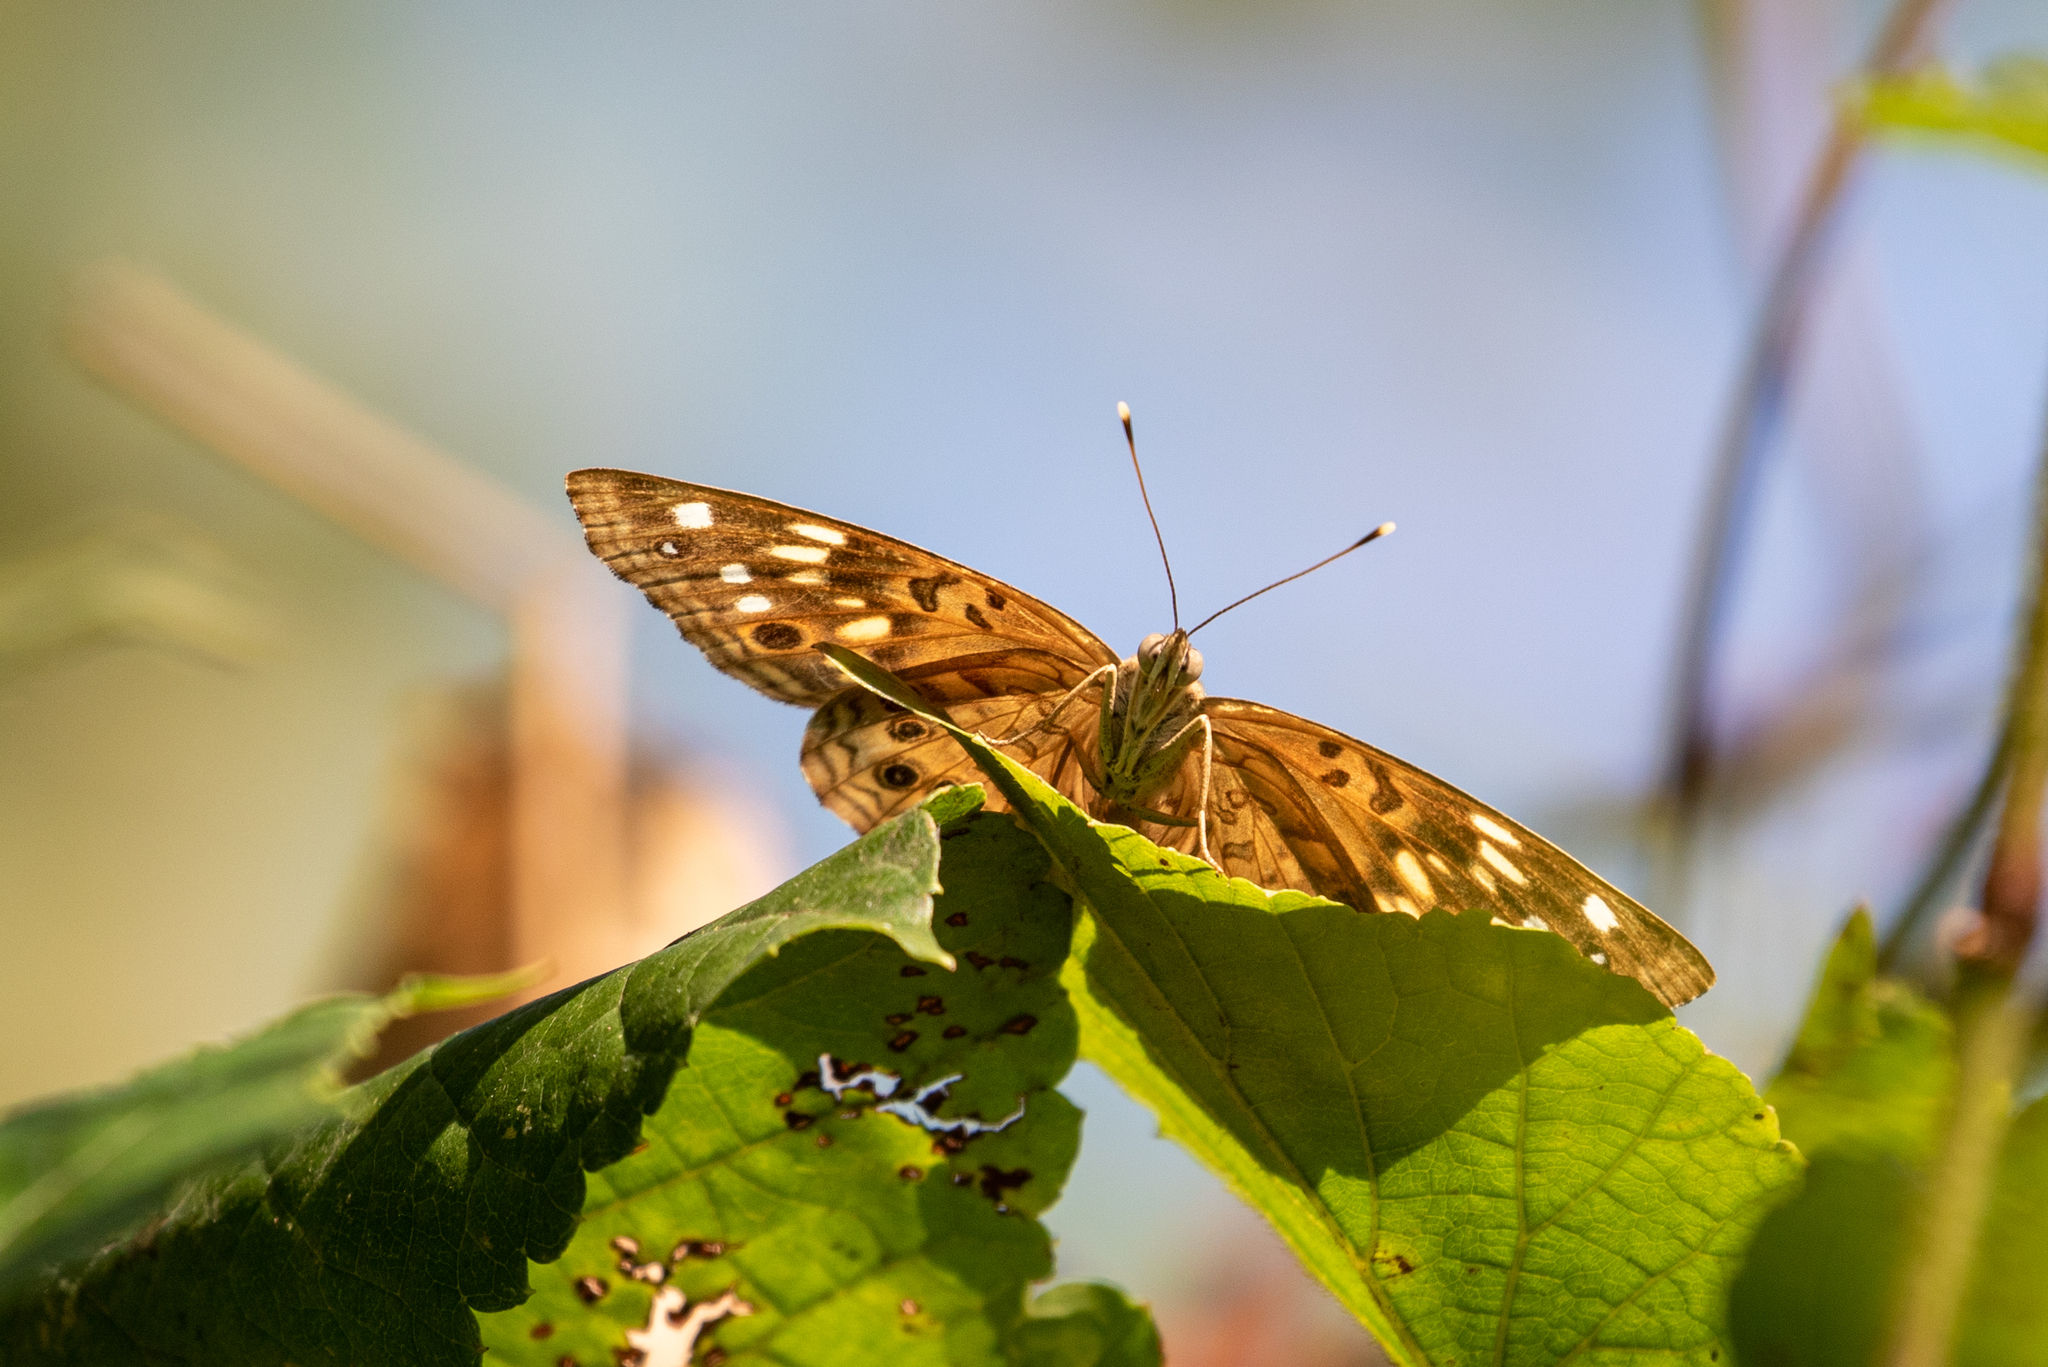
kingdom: Animalia
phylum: Arthropoda
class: Insecta
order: Lepidoptera
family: Nymphalidae
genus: Asterocampa
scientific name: Asterocampa celtis
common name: Hackberry emperor
